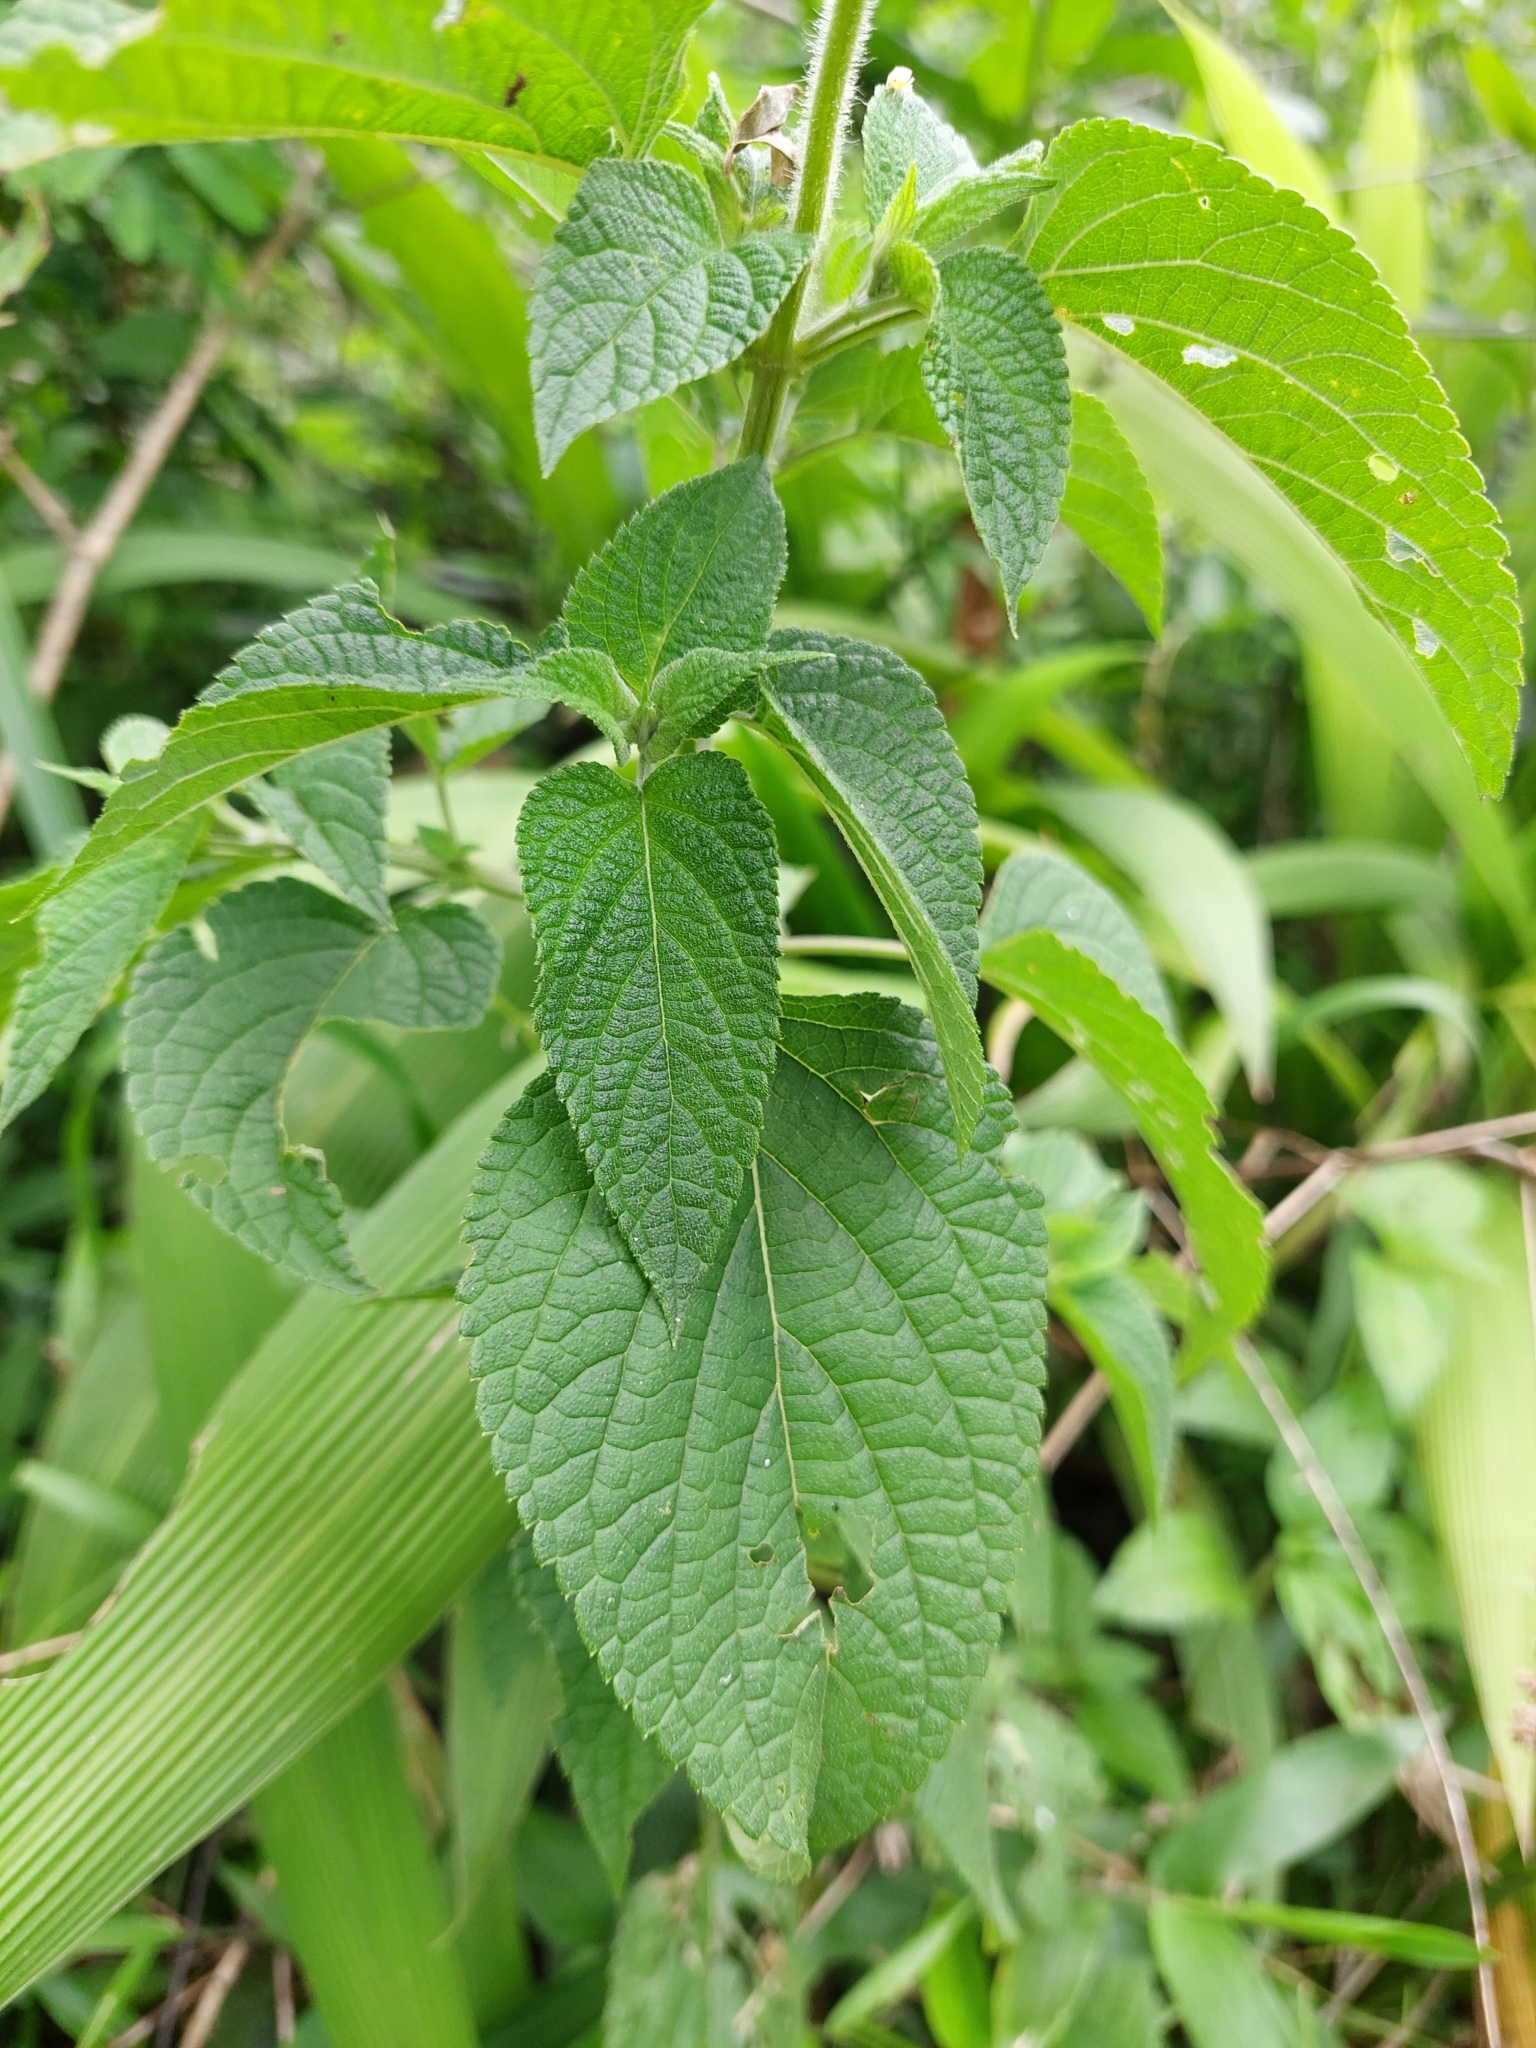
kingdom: Plantae
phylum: Tracheophyta
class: Magnoliopsida
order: Lamiales
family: Lamiaceae
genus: Salvia
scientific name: Salvia guaranitica
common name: Anise-scented sage
